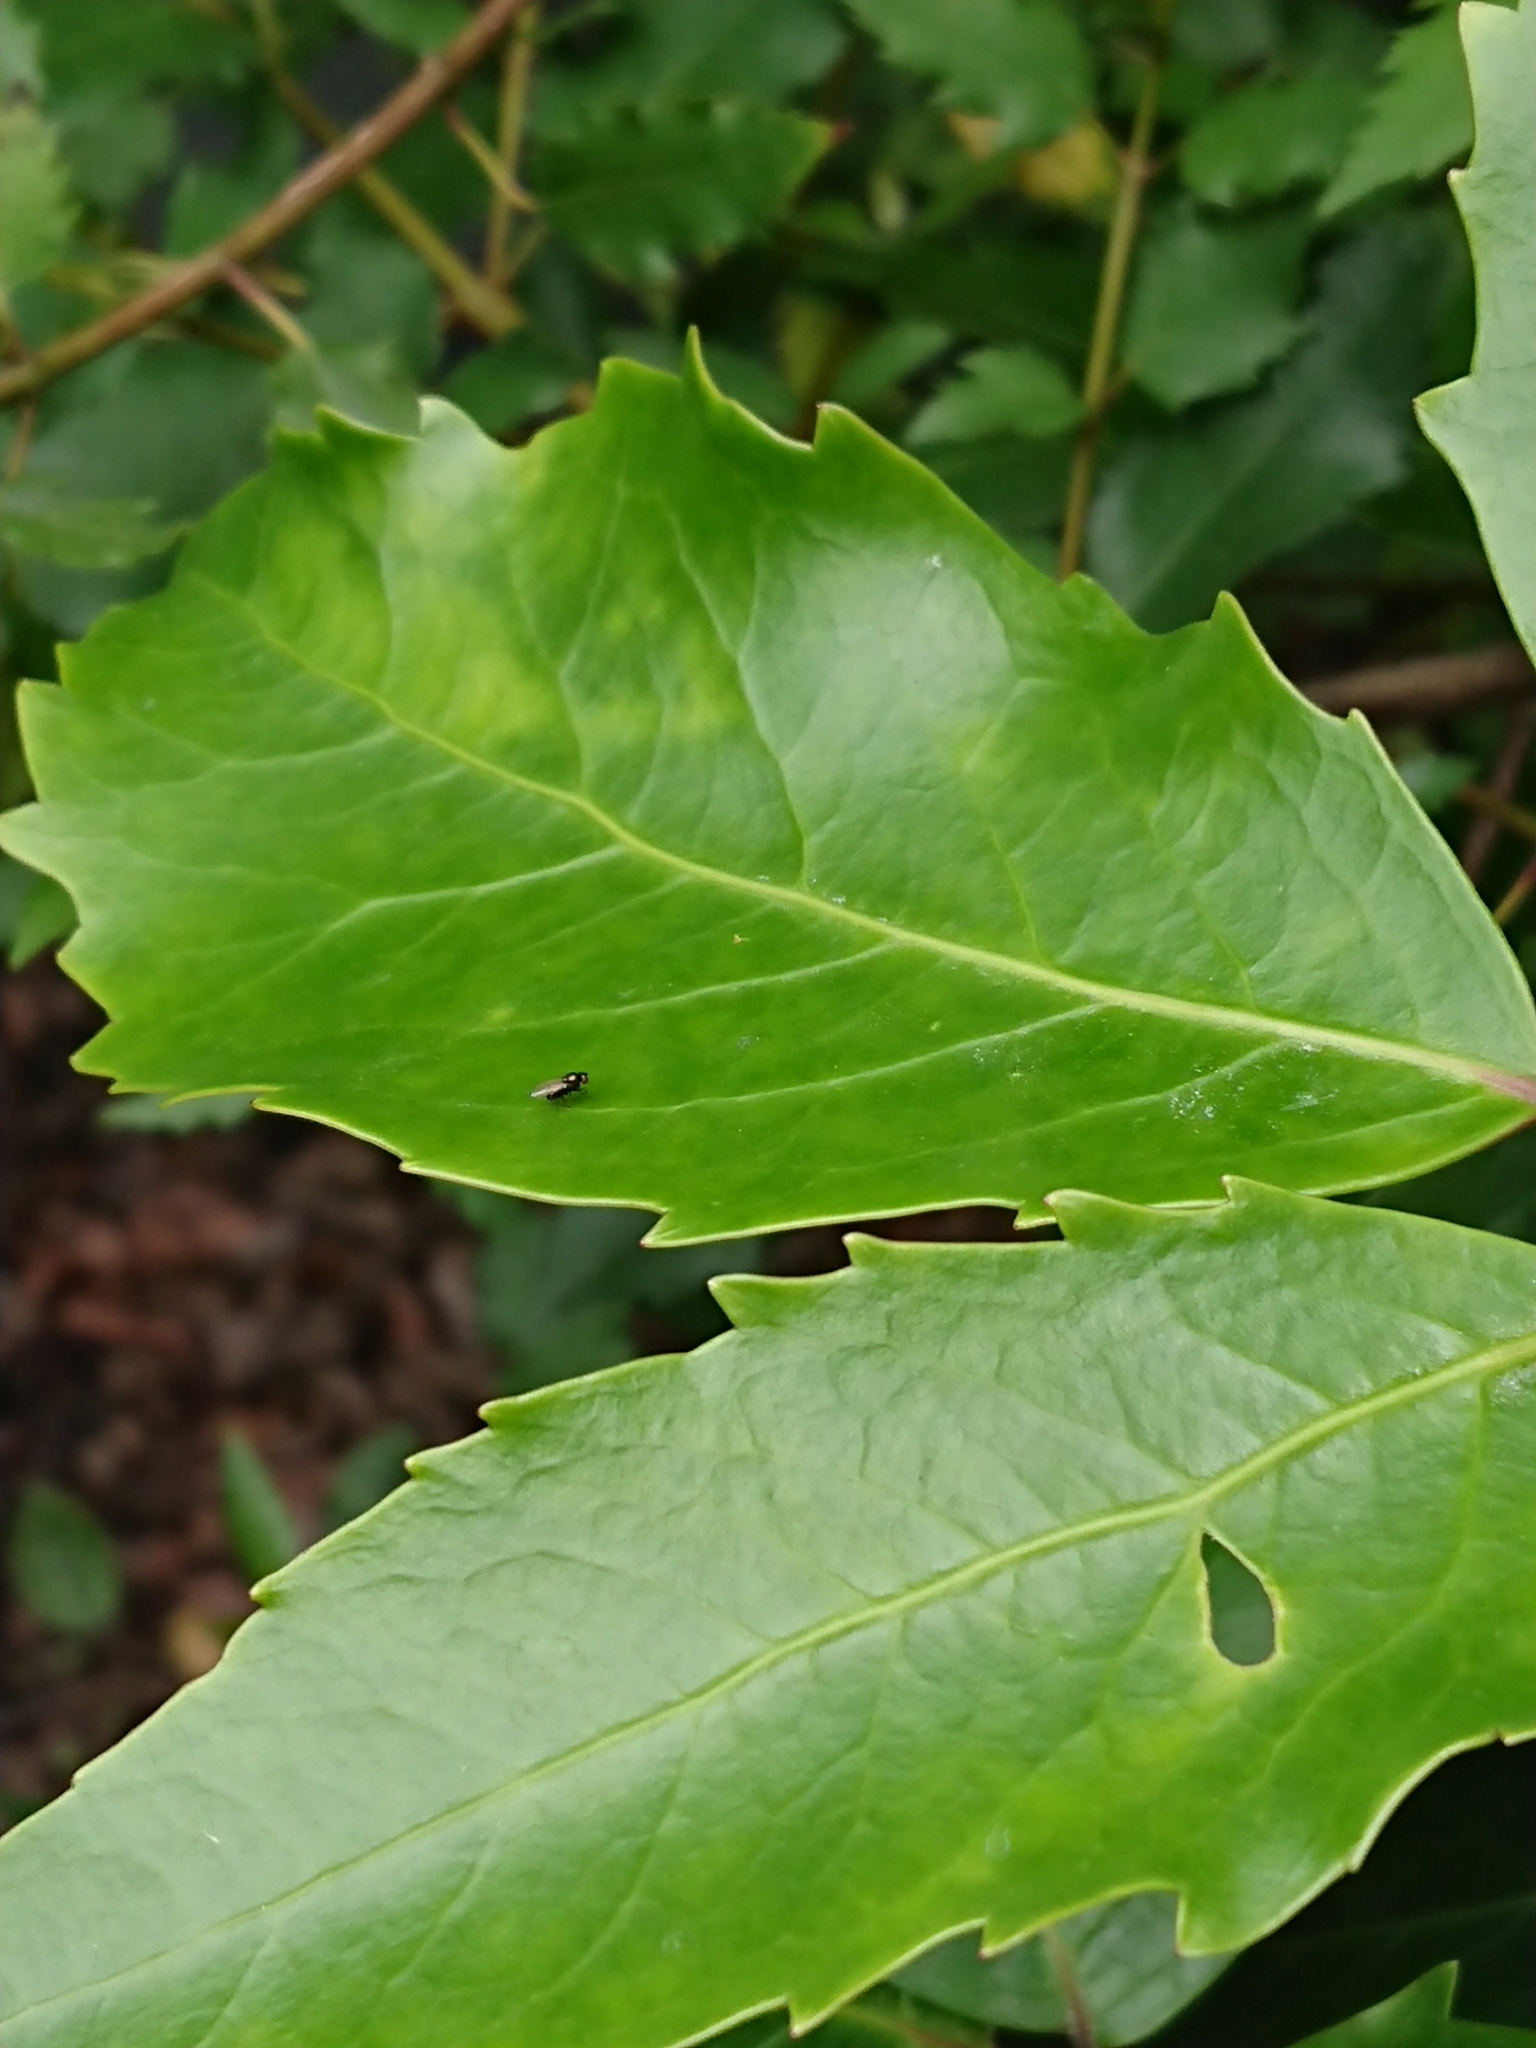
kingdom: Animalia
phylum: Arthropoda
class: Insecta
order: Diptera
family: Ephydridae
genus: Diasemocera
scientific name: Diasemocera metallica
